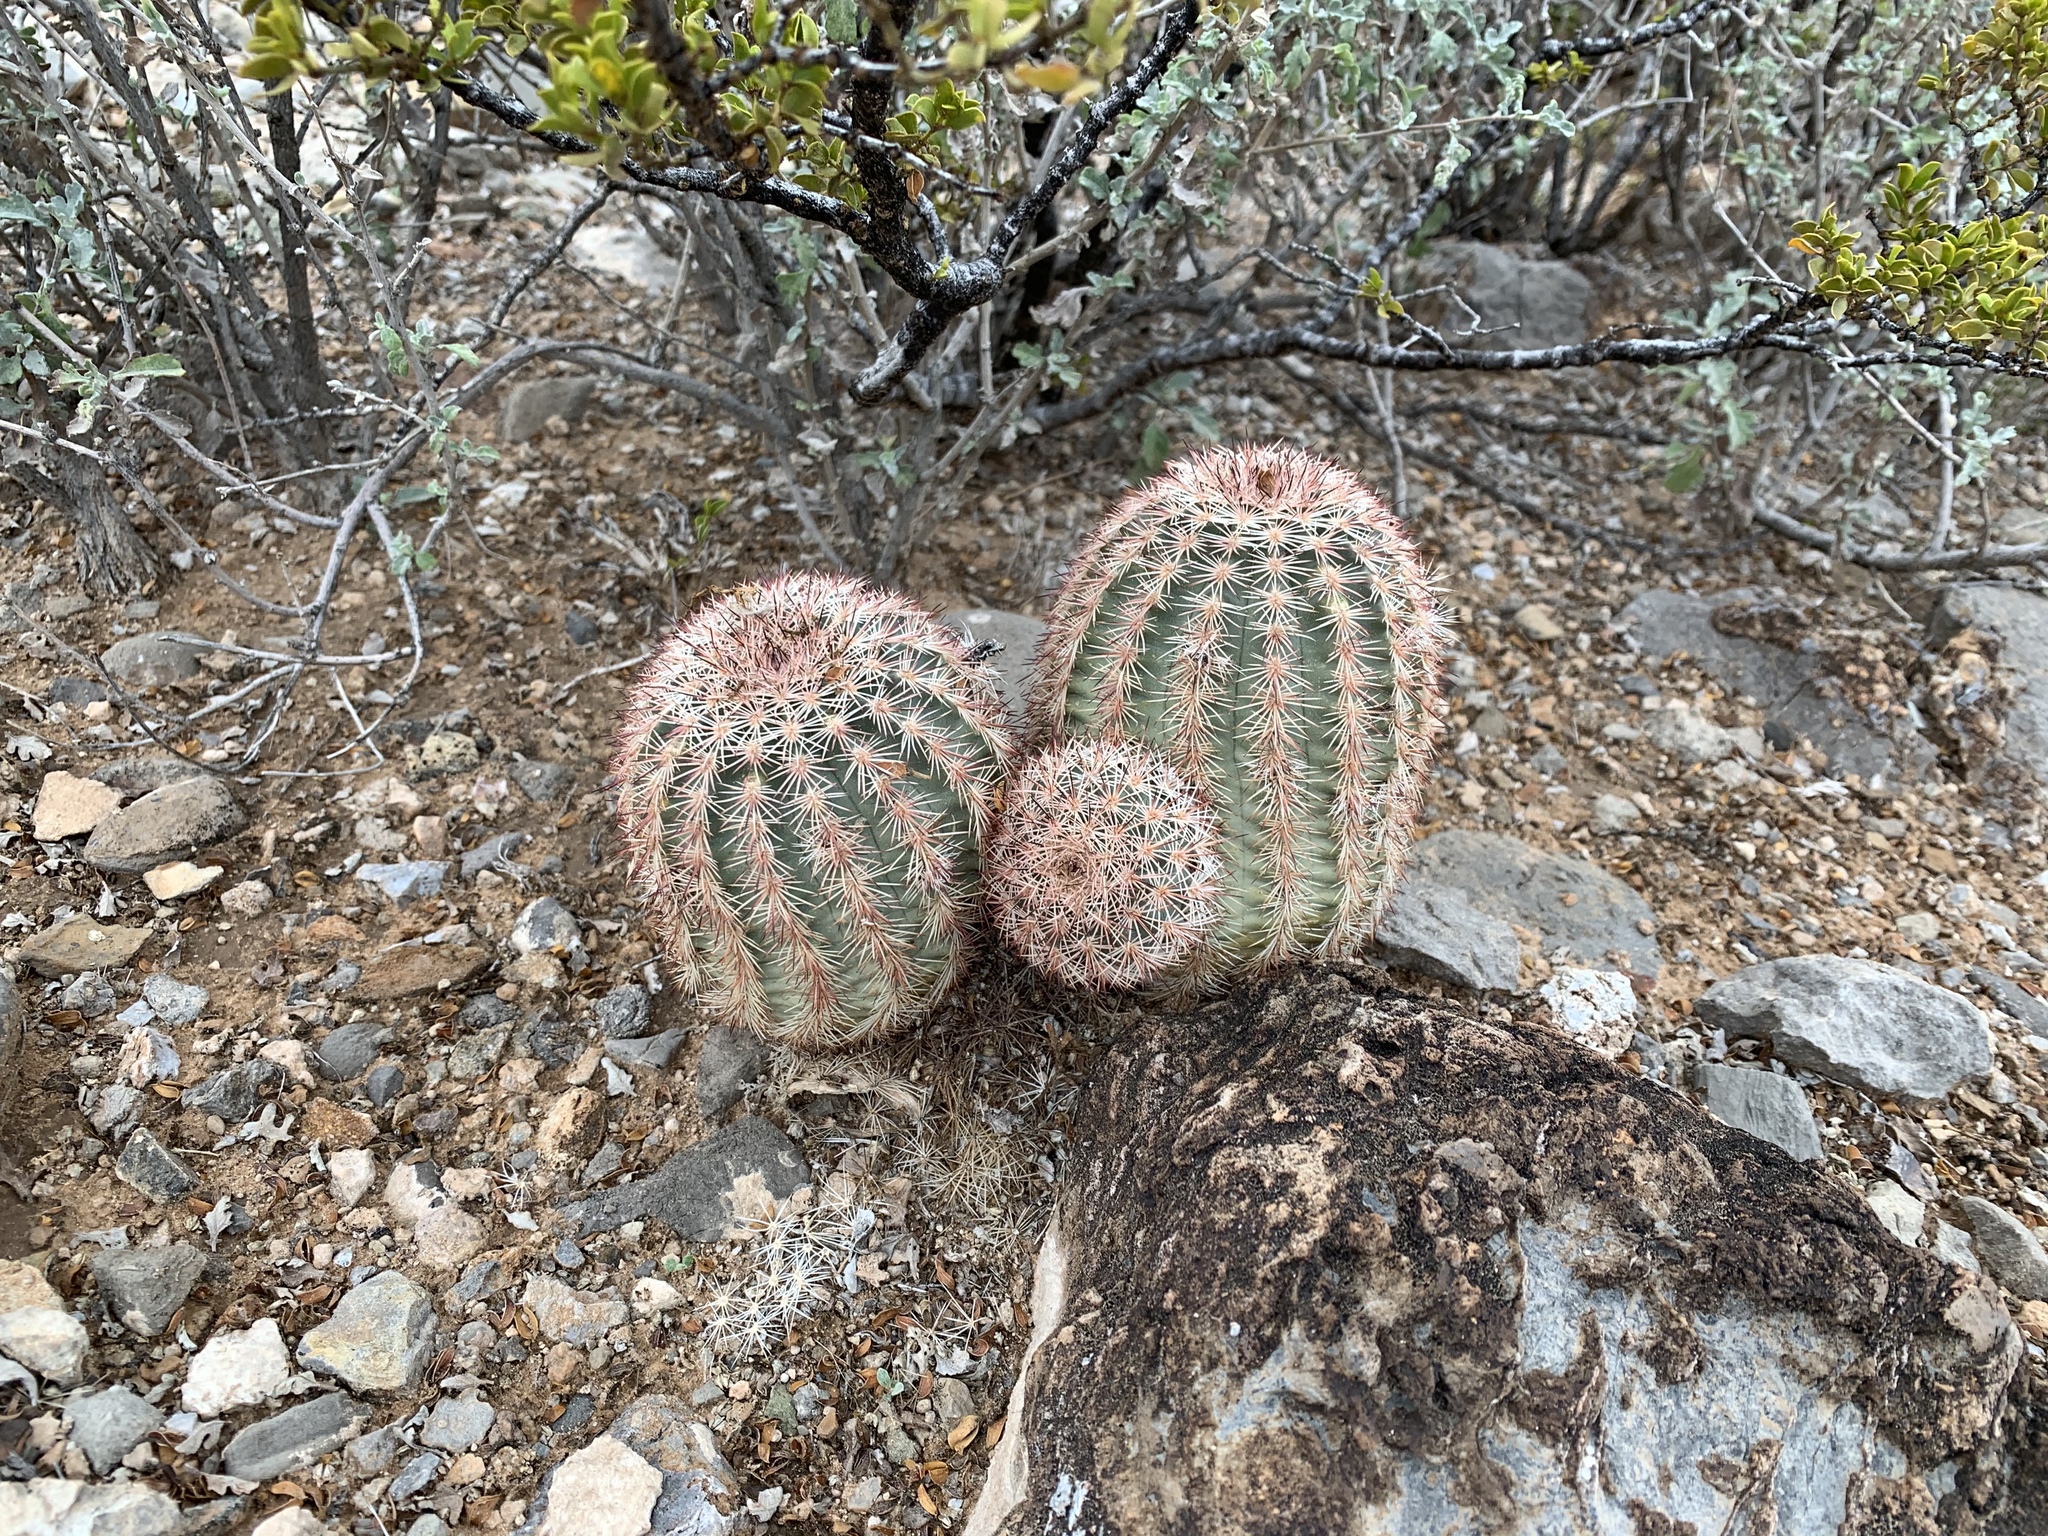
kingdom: Plantae
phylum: Tracheophyta
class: Magnoliopsida
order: Caryophyllales
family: Cactaceae
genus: Echinocereus
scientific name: Echinocereus dasyacanthus
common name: Spiny hedgehog cactus
